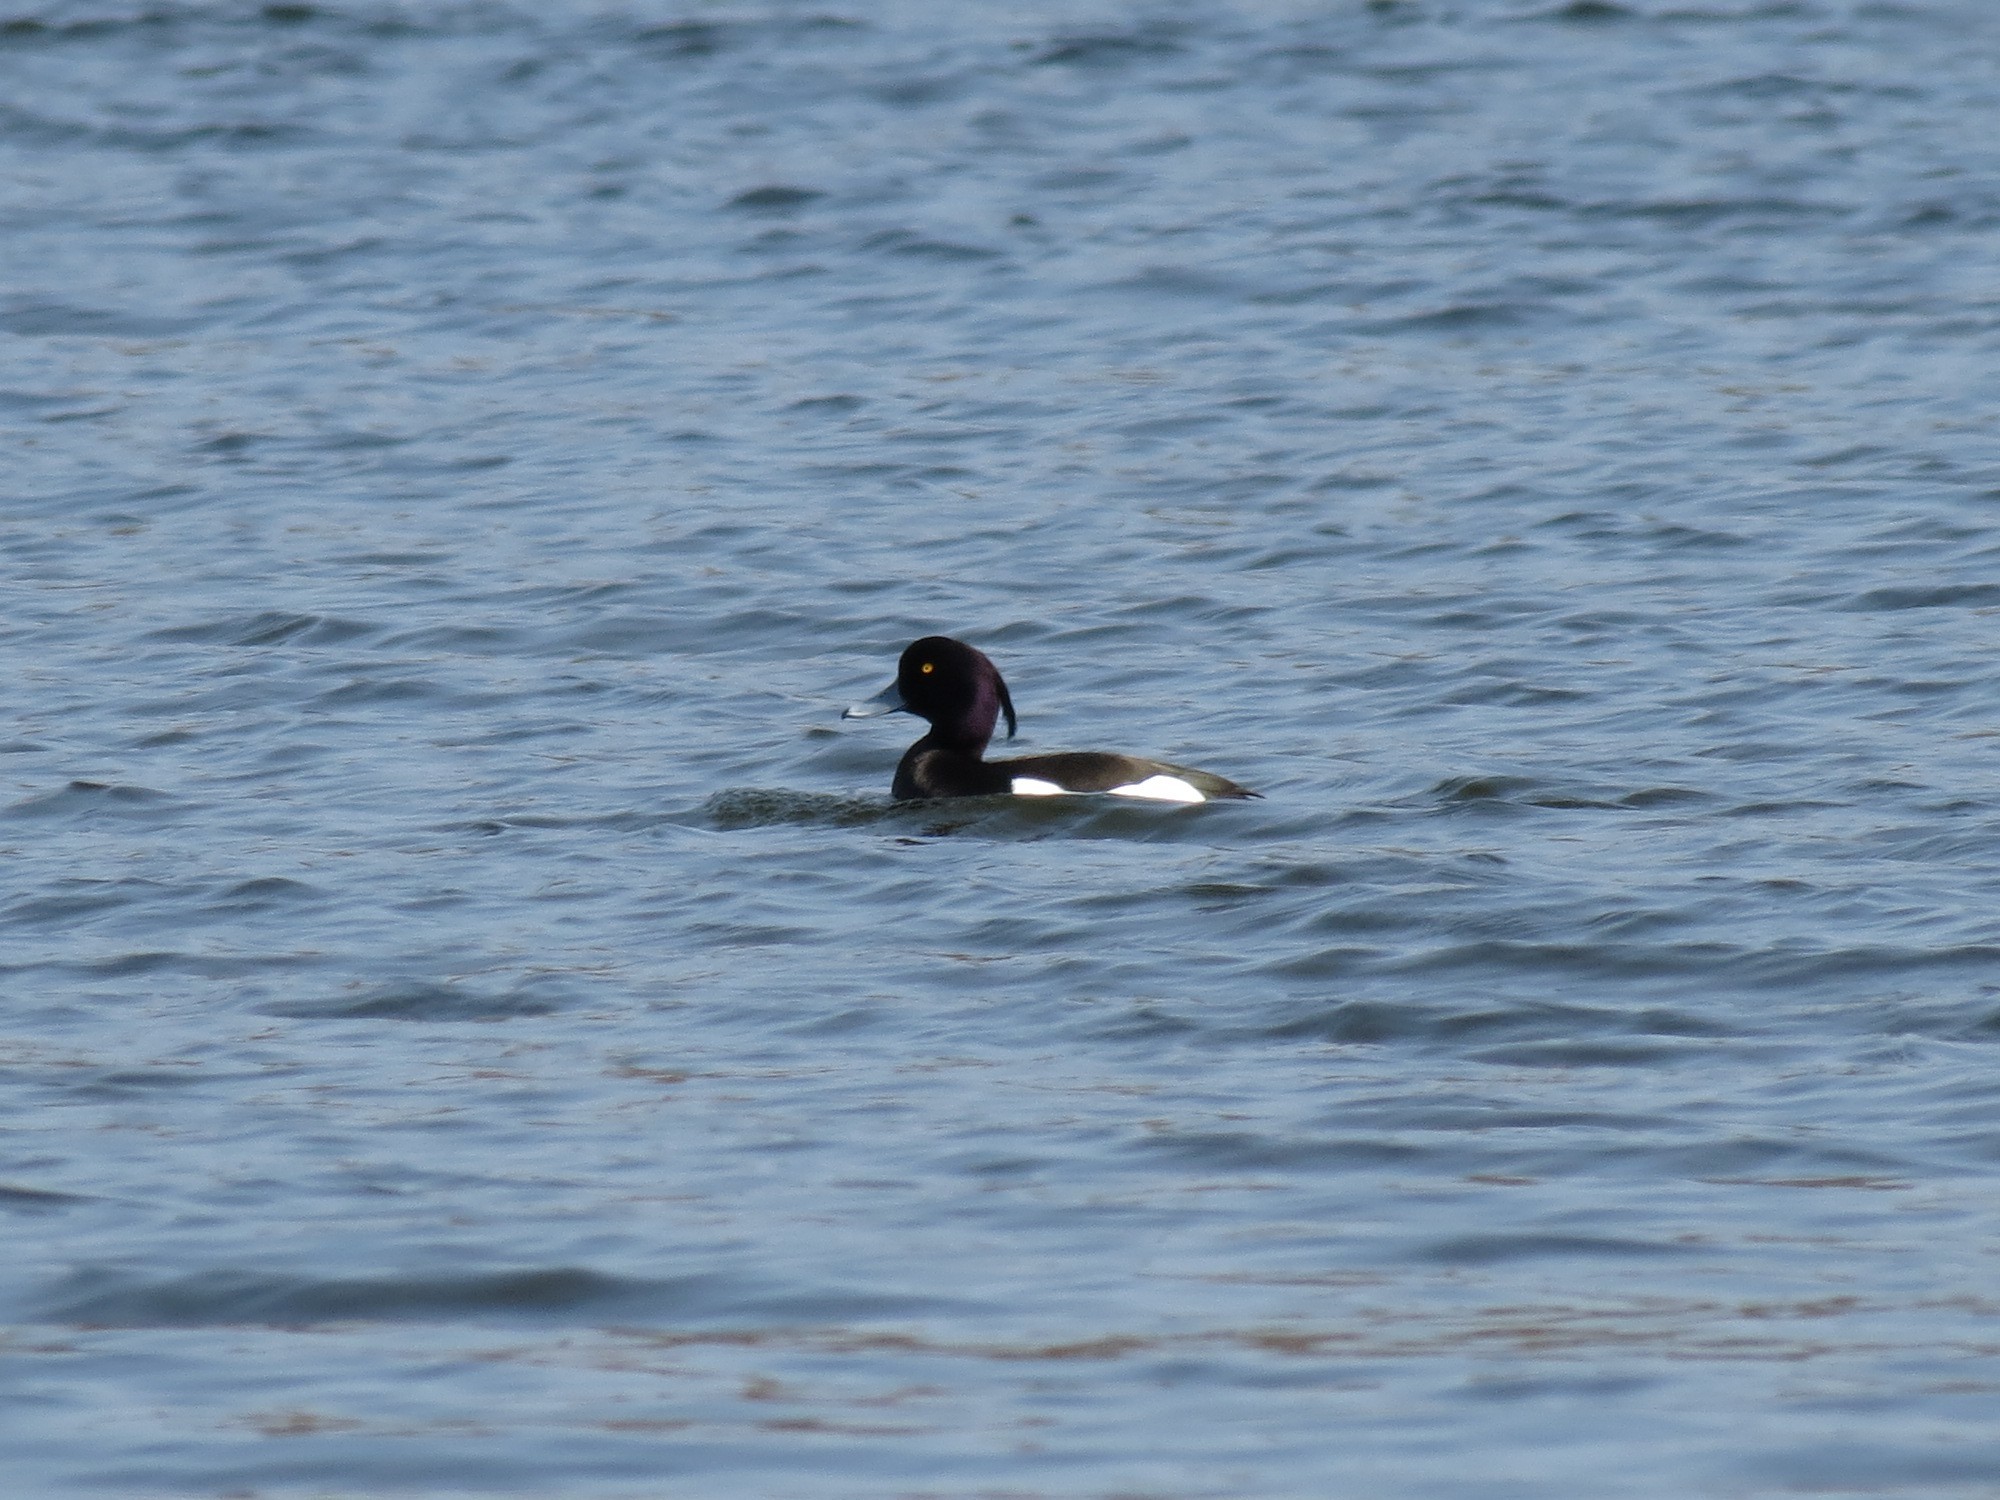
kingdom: Animalia
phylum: Chordata
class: Aves
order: Anseriformes
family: Anatidae
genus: Aythya
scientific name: Aythya fuligula
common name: Tufted duck
